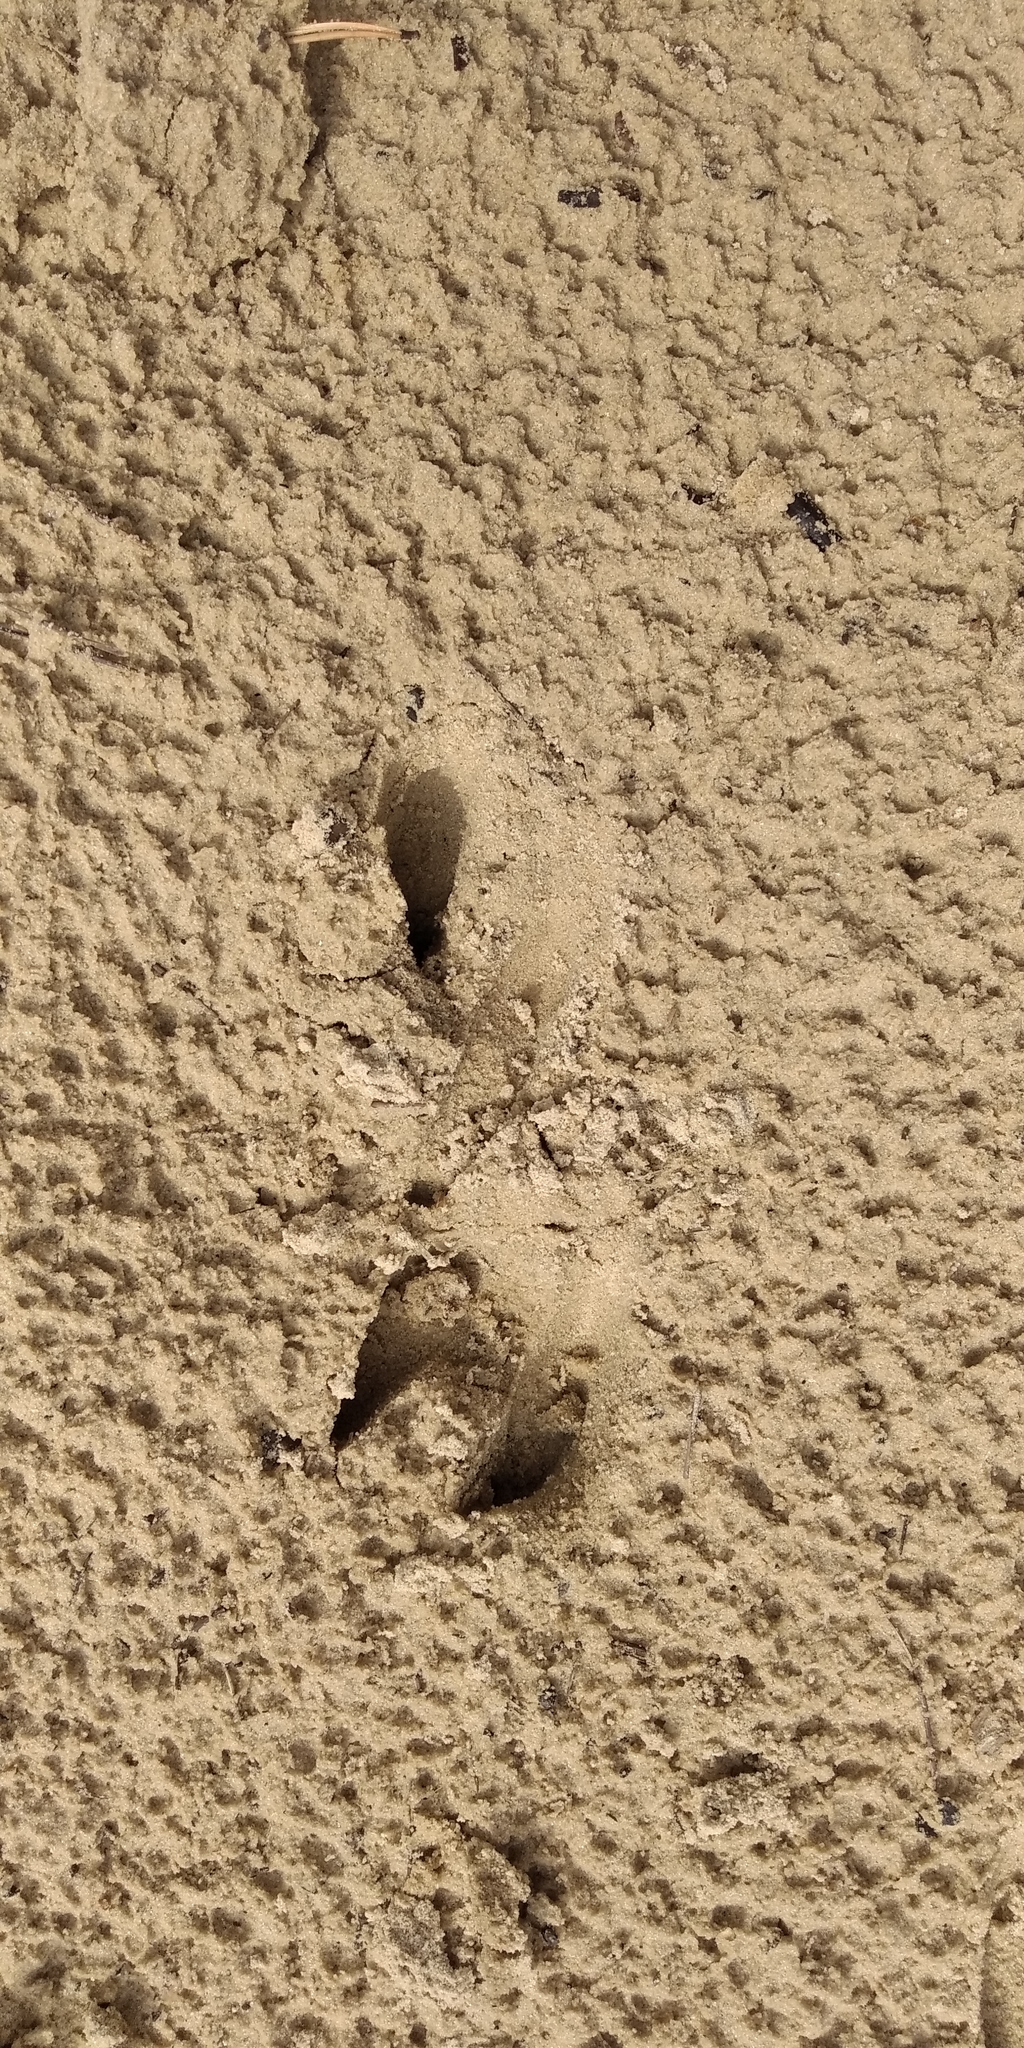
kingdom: Animalia
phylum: Chordata
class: Mammalia
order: Artiodactyla
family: Cervidae
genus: Capreolus
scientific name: Capreolus capreolus
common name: Western roe deer
